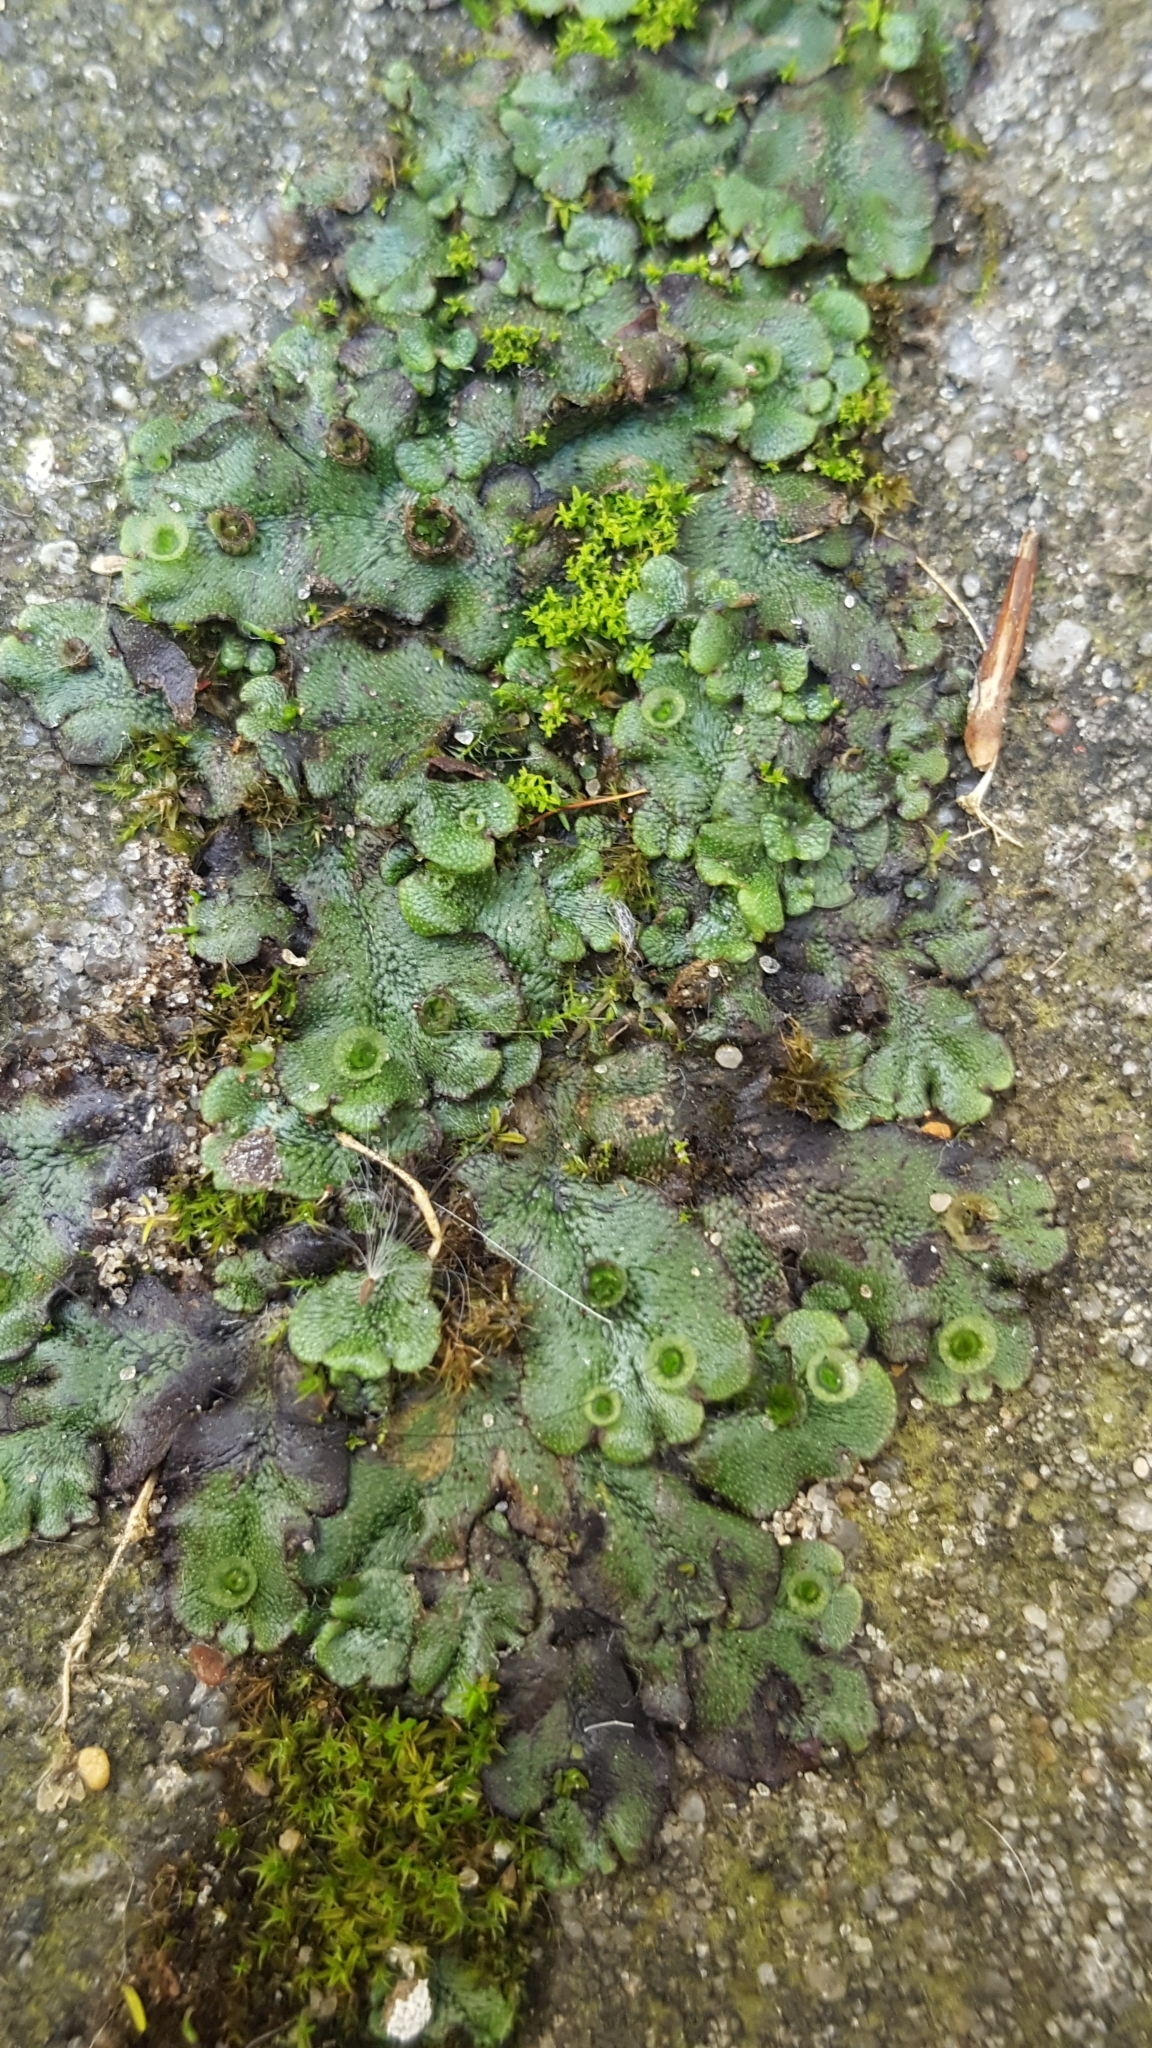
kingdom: Plantae
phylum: Marchantiophyta
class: Marchantiopsida
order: Marchantiales
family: Marchantiaceae
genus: Marchantia
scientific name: Marchantia polymorpha
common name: Common liverwort
